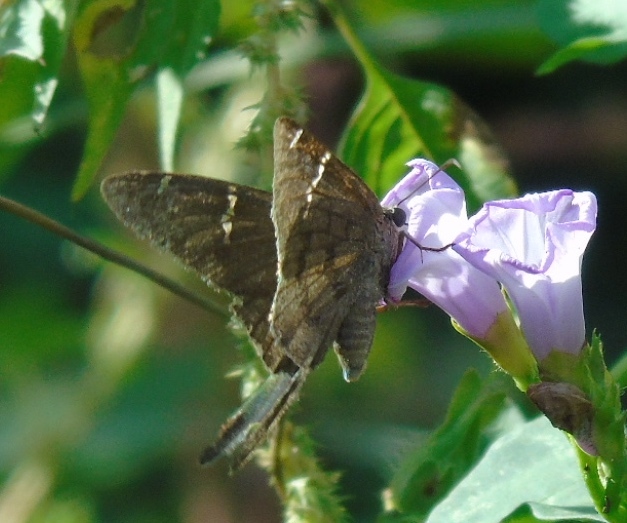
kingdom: Animalia
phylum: Arthropoda
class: Insecta
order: Lepidoptera
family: Hesperiidae
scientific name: Hesperiidae
